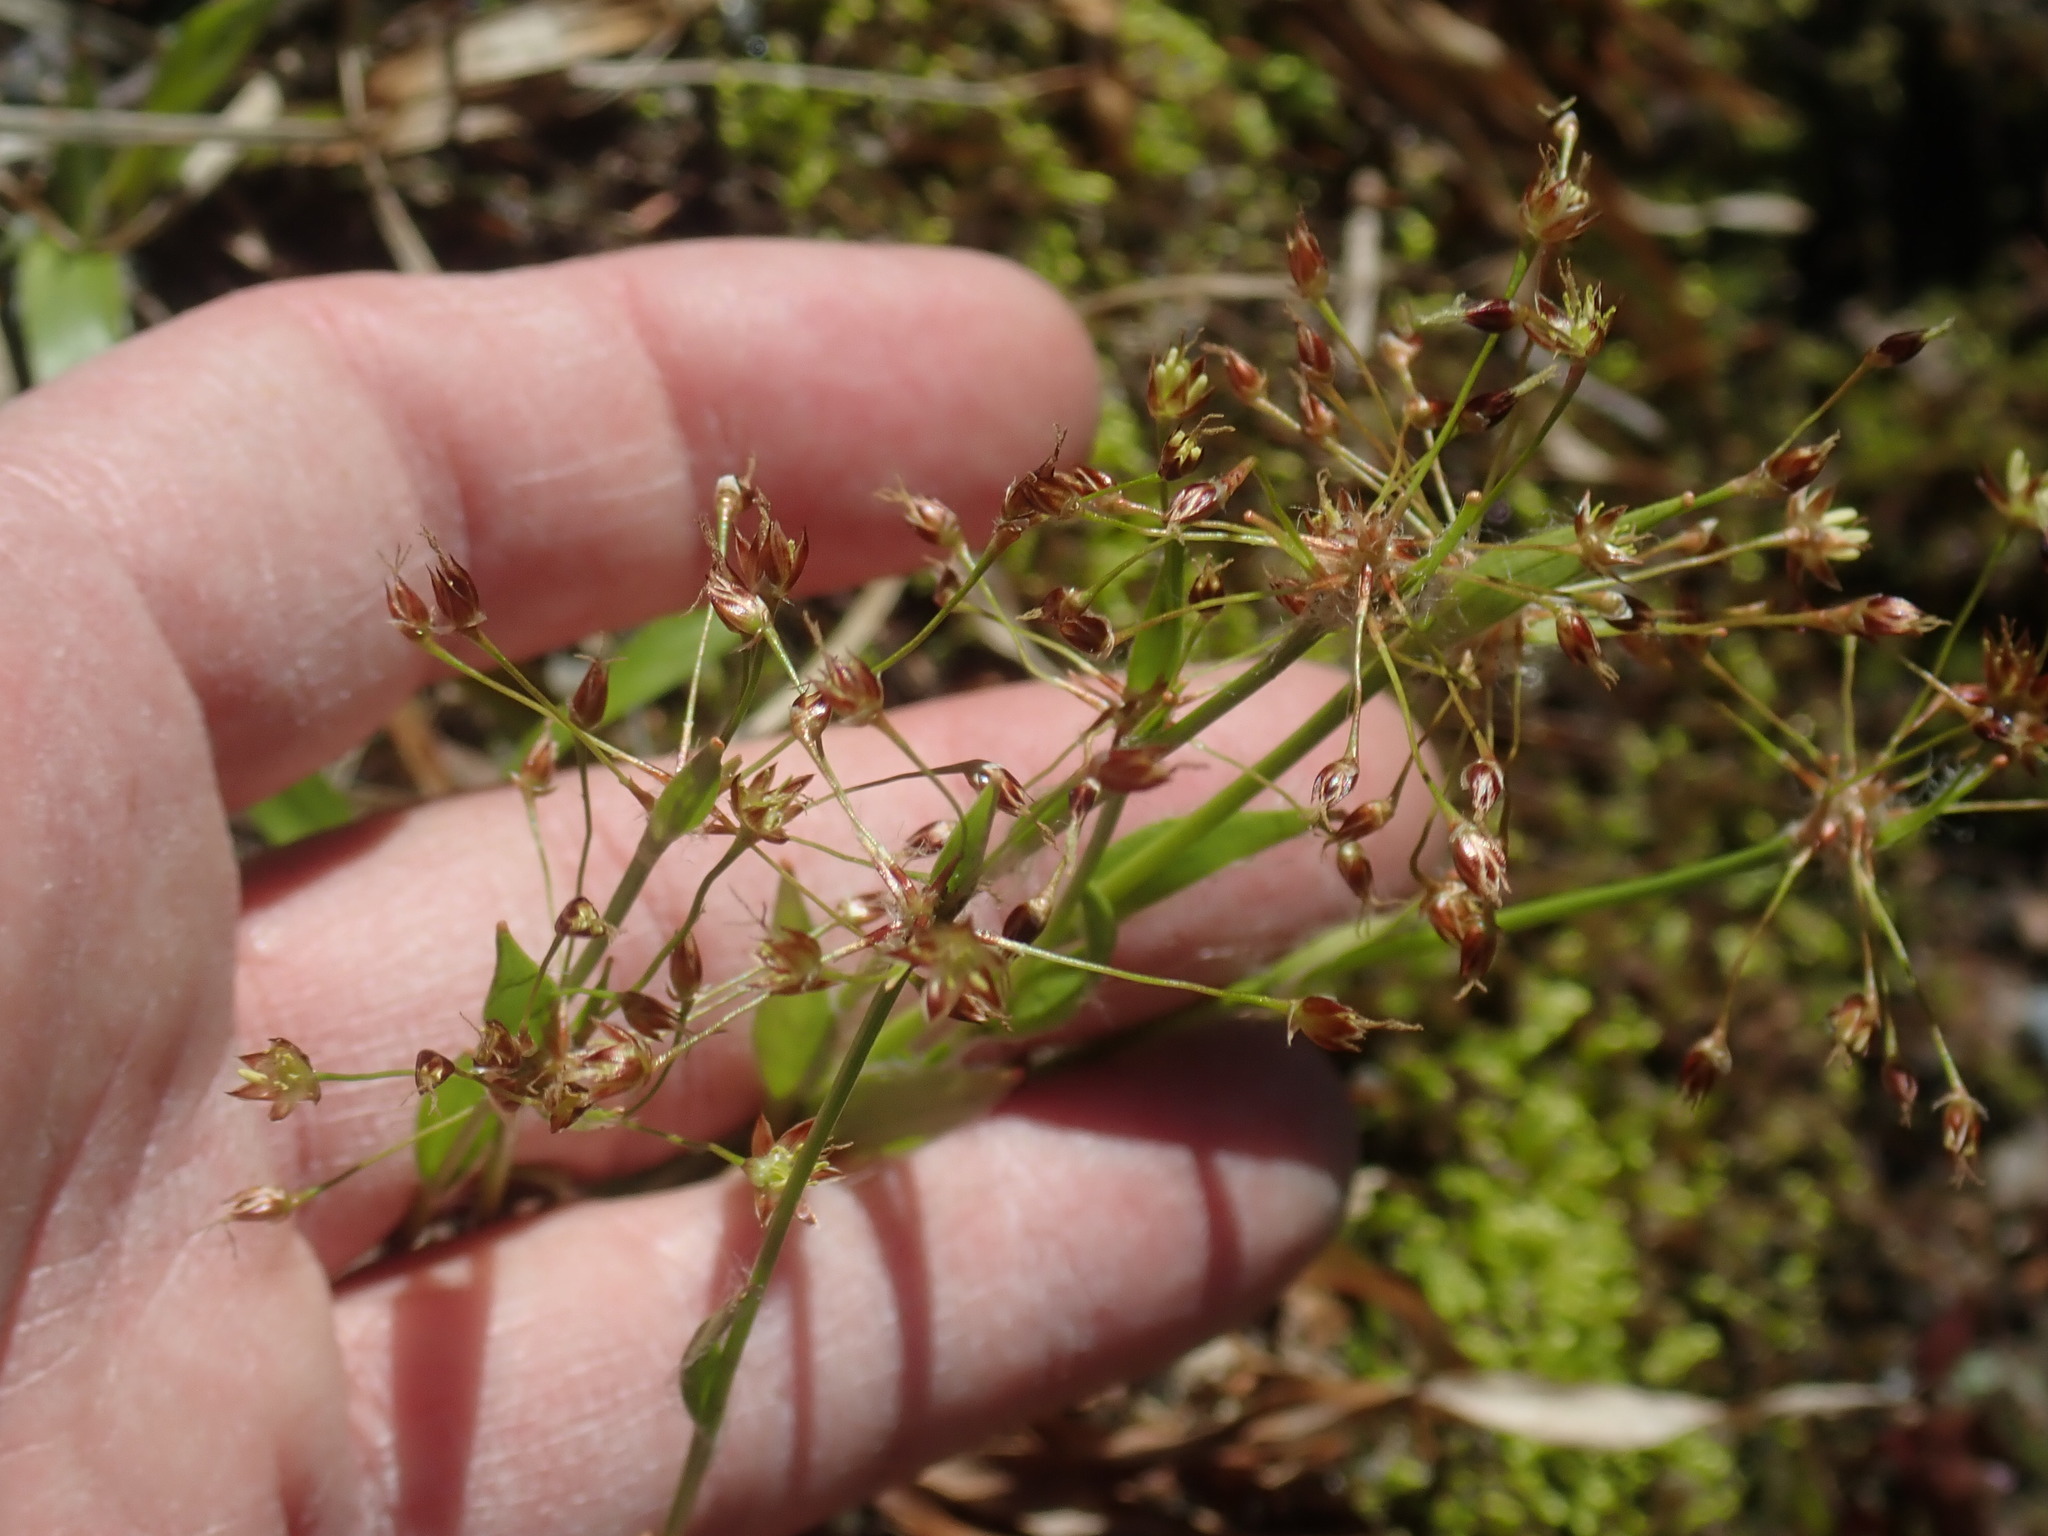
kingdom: Plantae
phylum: Tracheophyta
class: Liliopsida
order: Poales
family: Juncaceae
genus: Luzula
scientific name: Luzula acuminata
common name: Hairy woodrush
